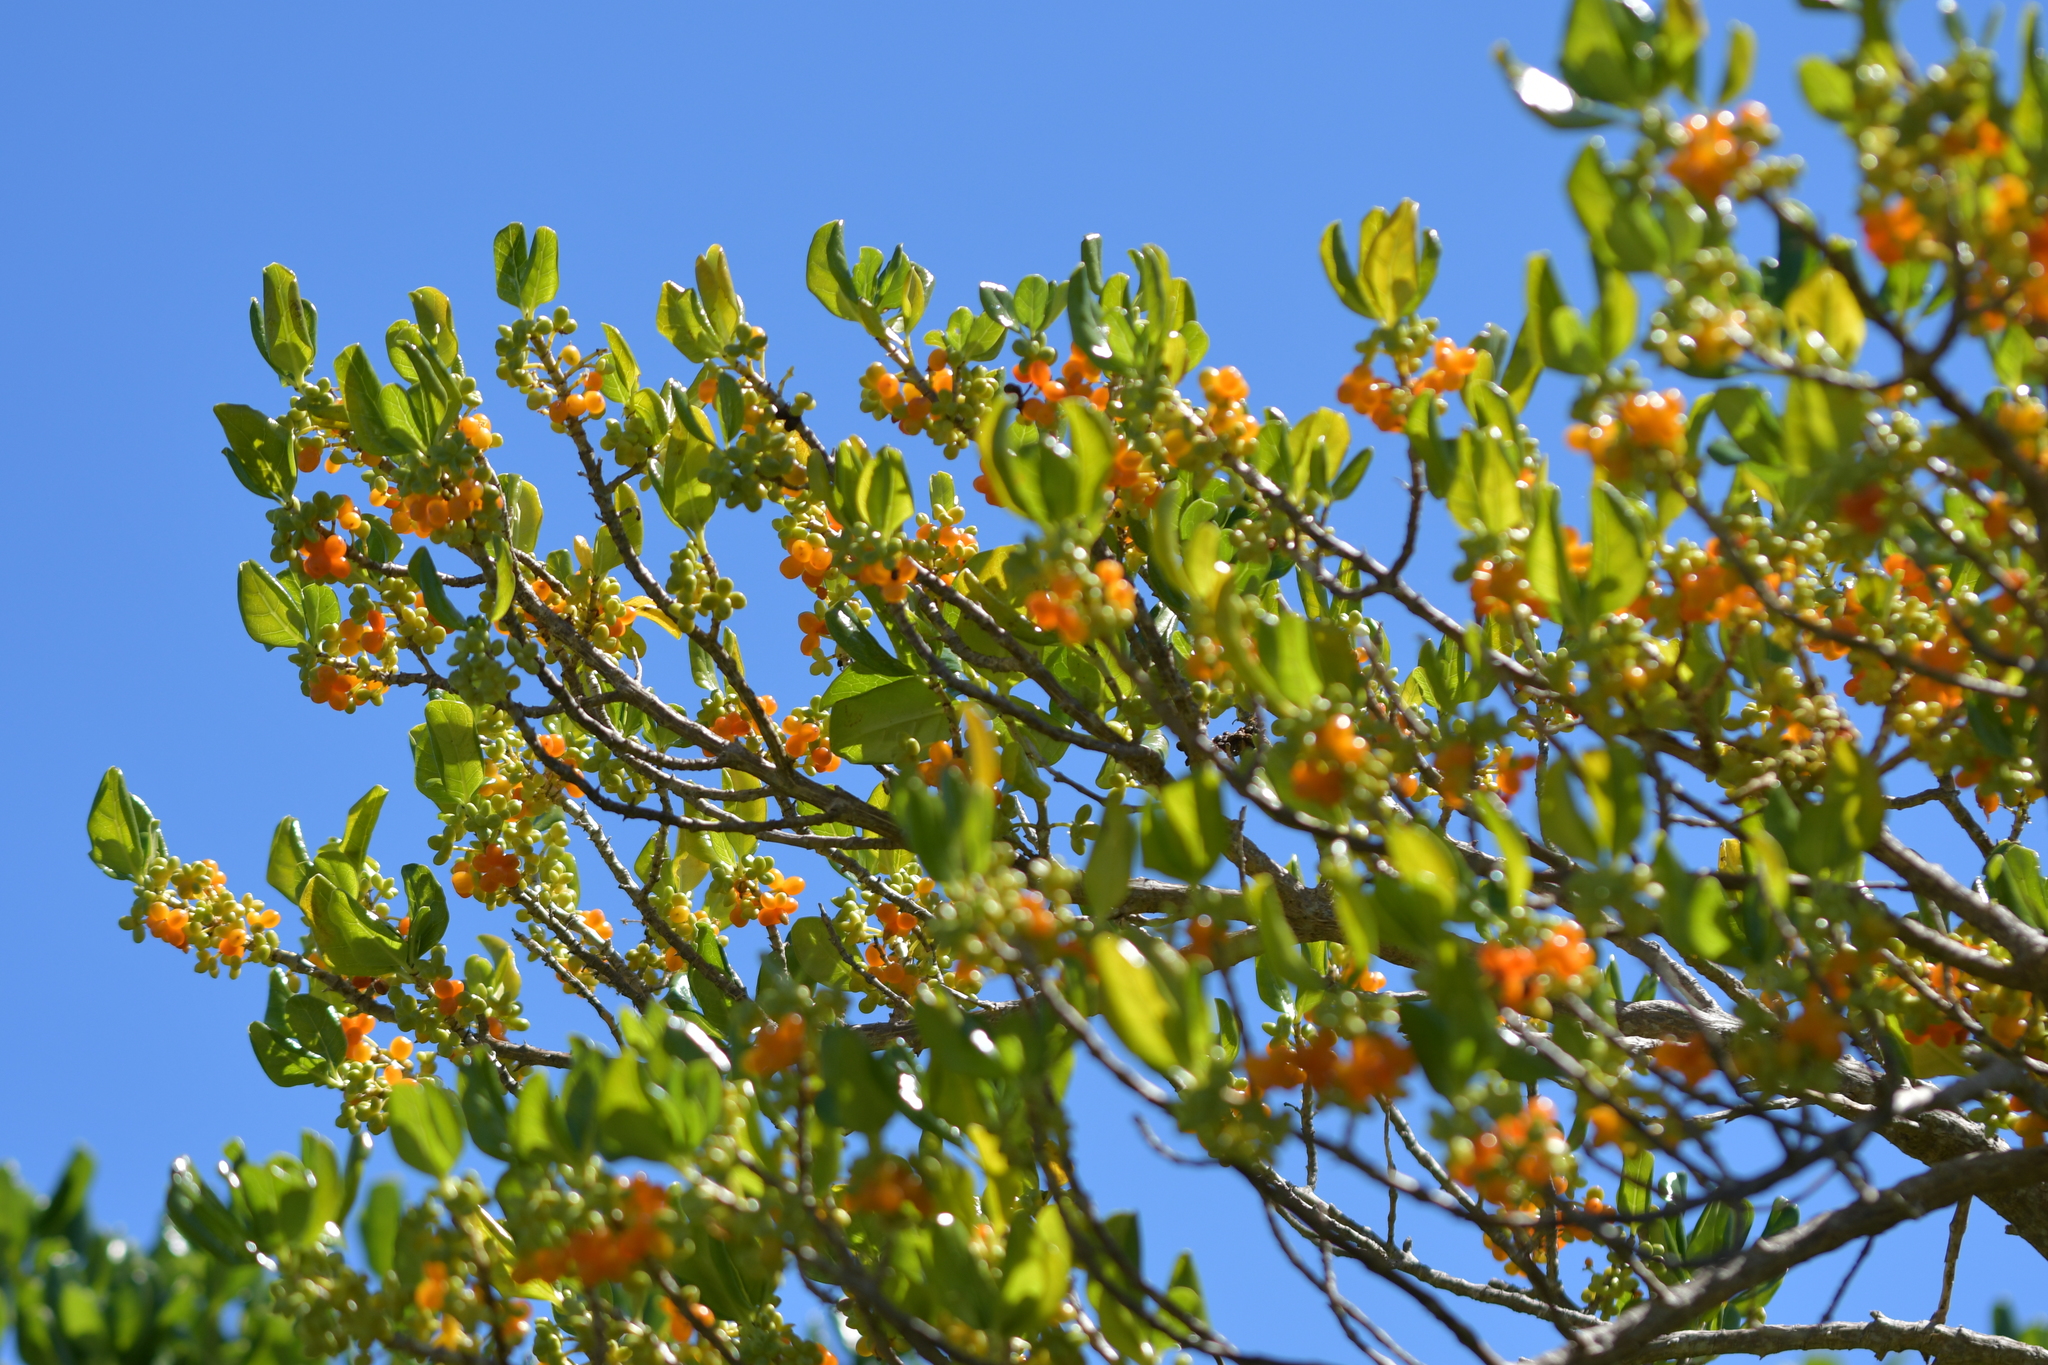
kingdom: Plantae
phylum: Tracheophyta
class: Magnoliopsida
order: Gentianales
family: Rubiaceae
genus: Coprosma
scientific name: Coprosma repens
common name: Tree bedstraw
